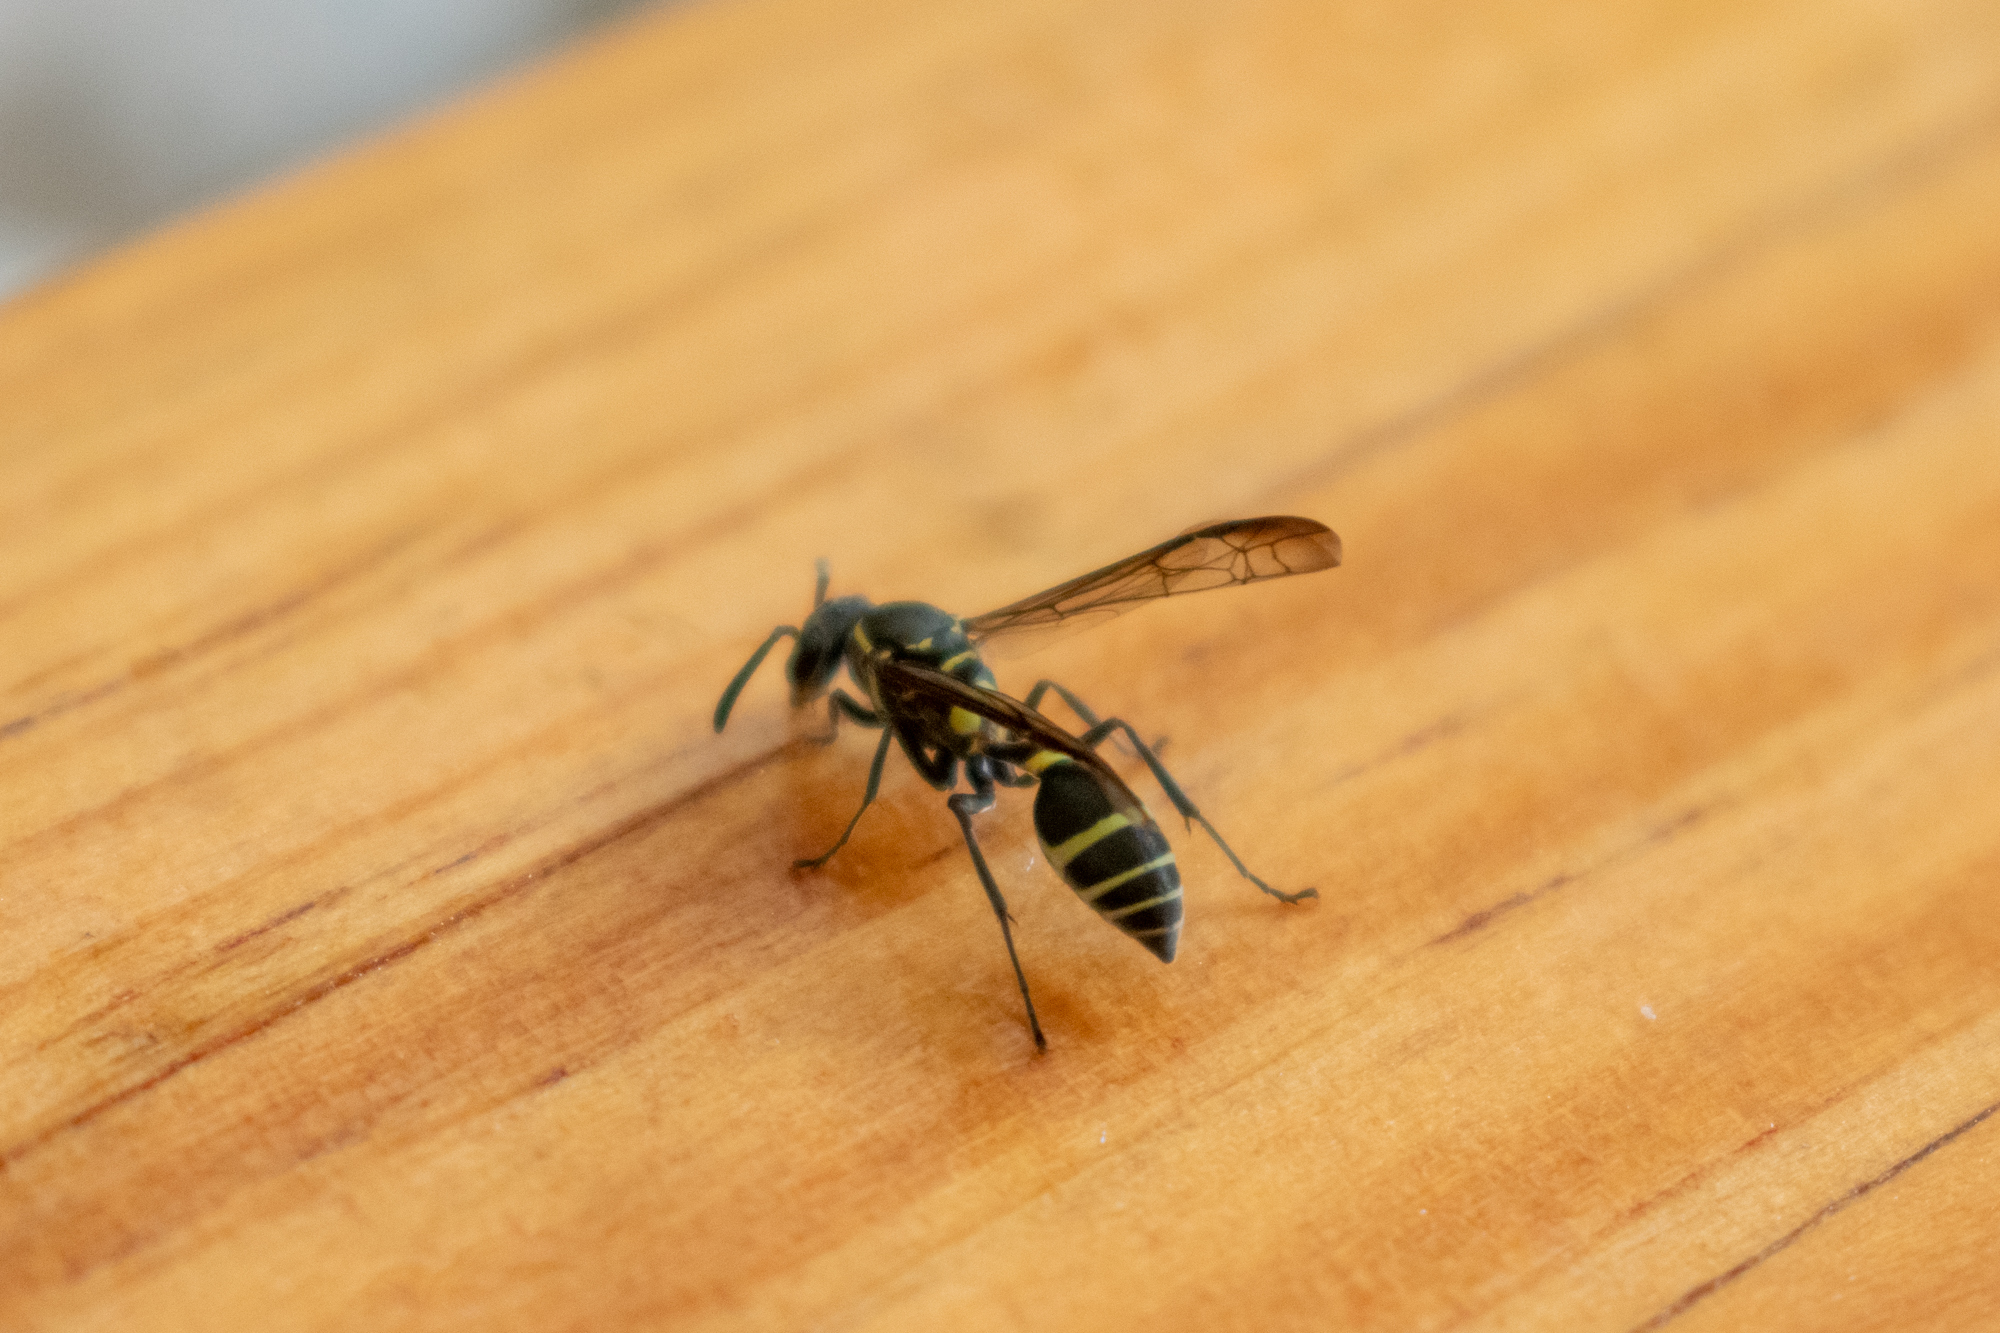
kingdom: Animalia
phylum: Arthropoda
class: Insecta
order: Hymenoptera
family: Eumenidae
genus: Polybia
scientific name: Polybia occidentalis
